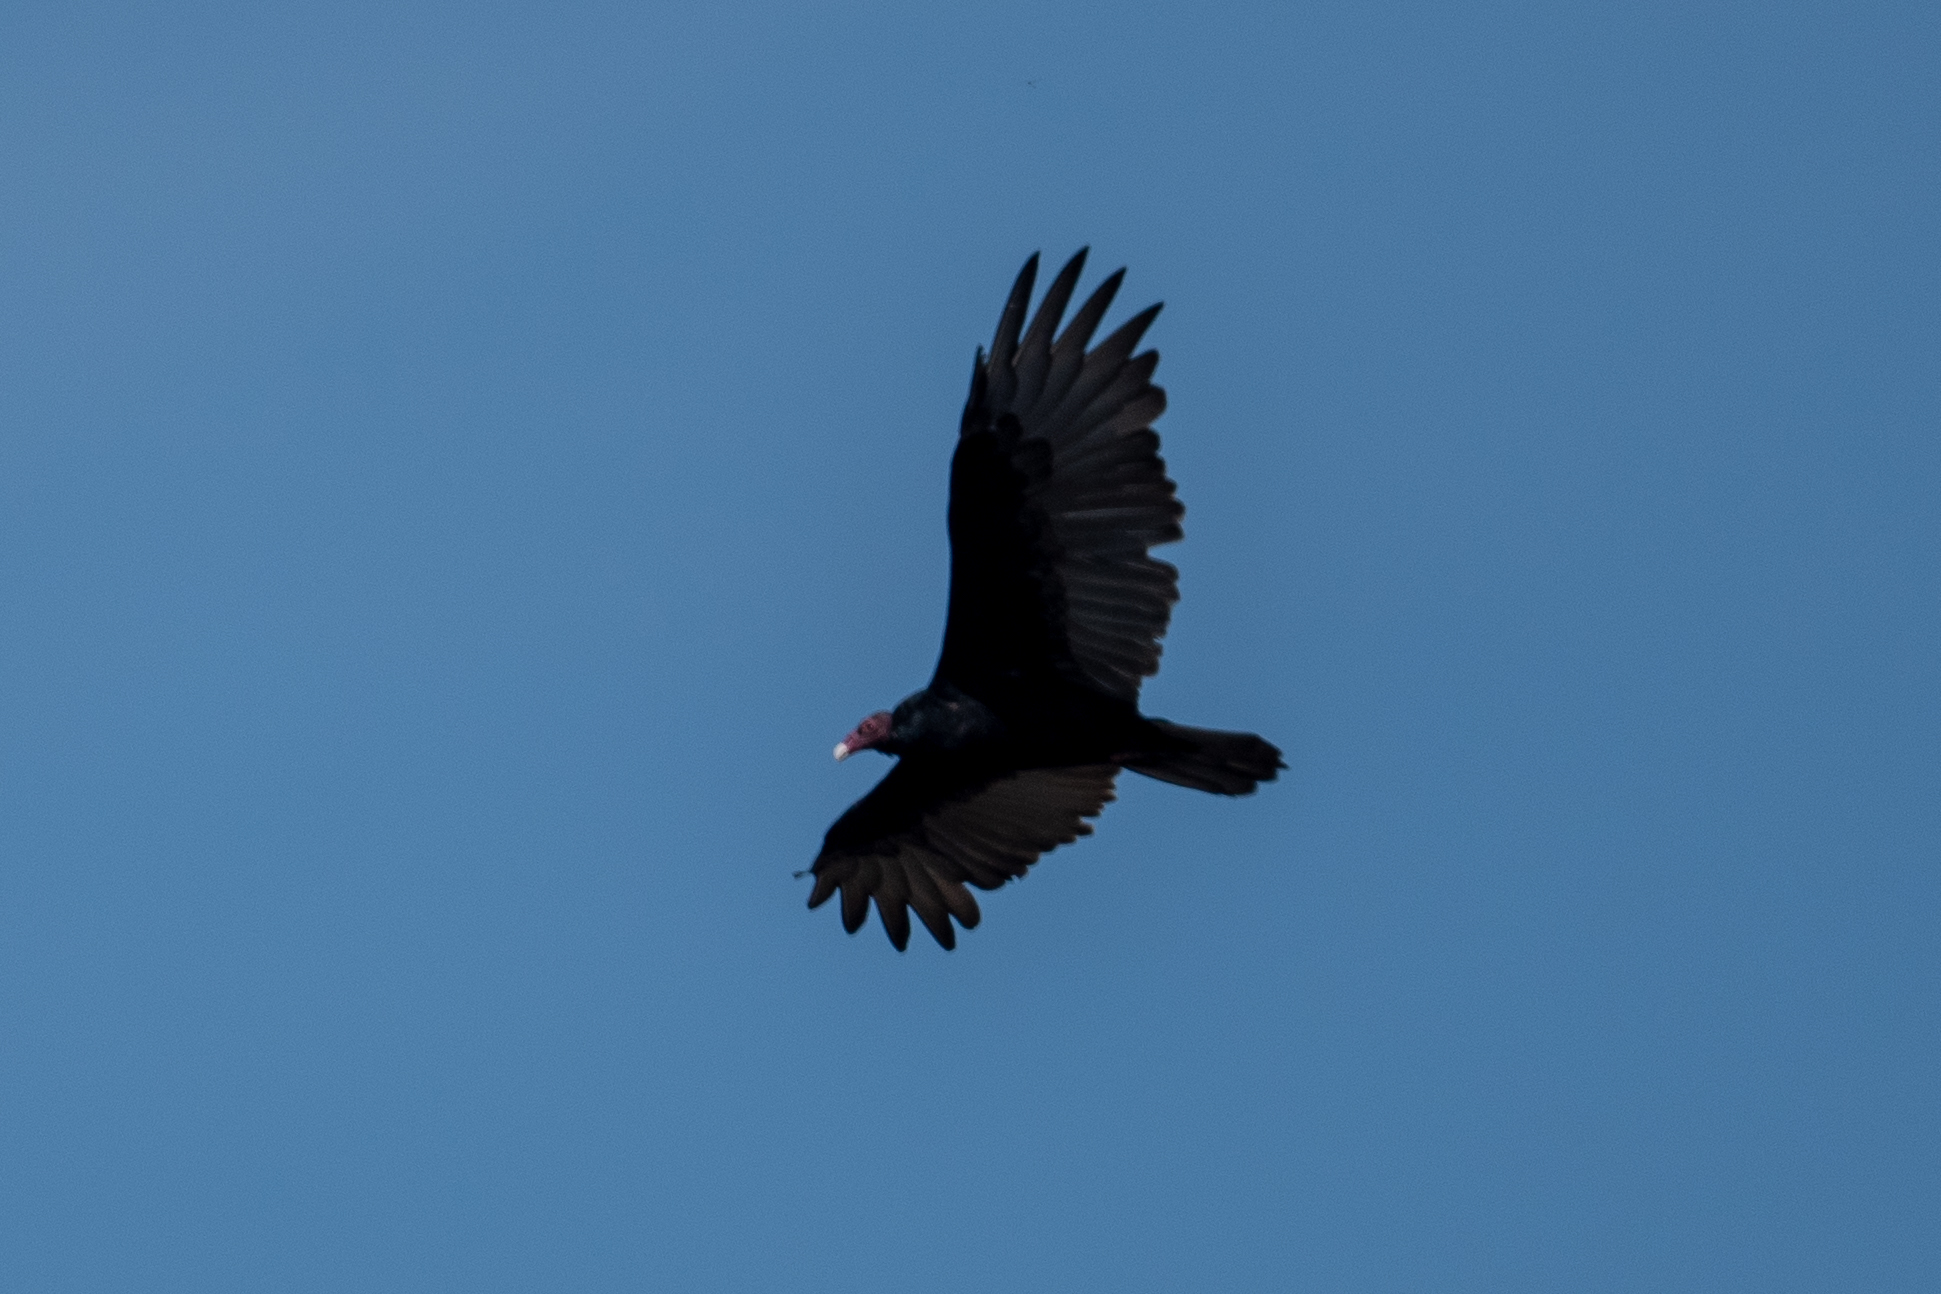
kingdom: Animalia
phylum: Chordata
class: Aves
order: Accipitriformes
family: Cathartidae
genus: Cathartes
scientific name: Cathartes aura
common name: Turkey vulture
